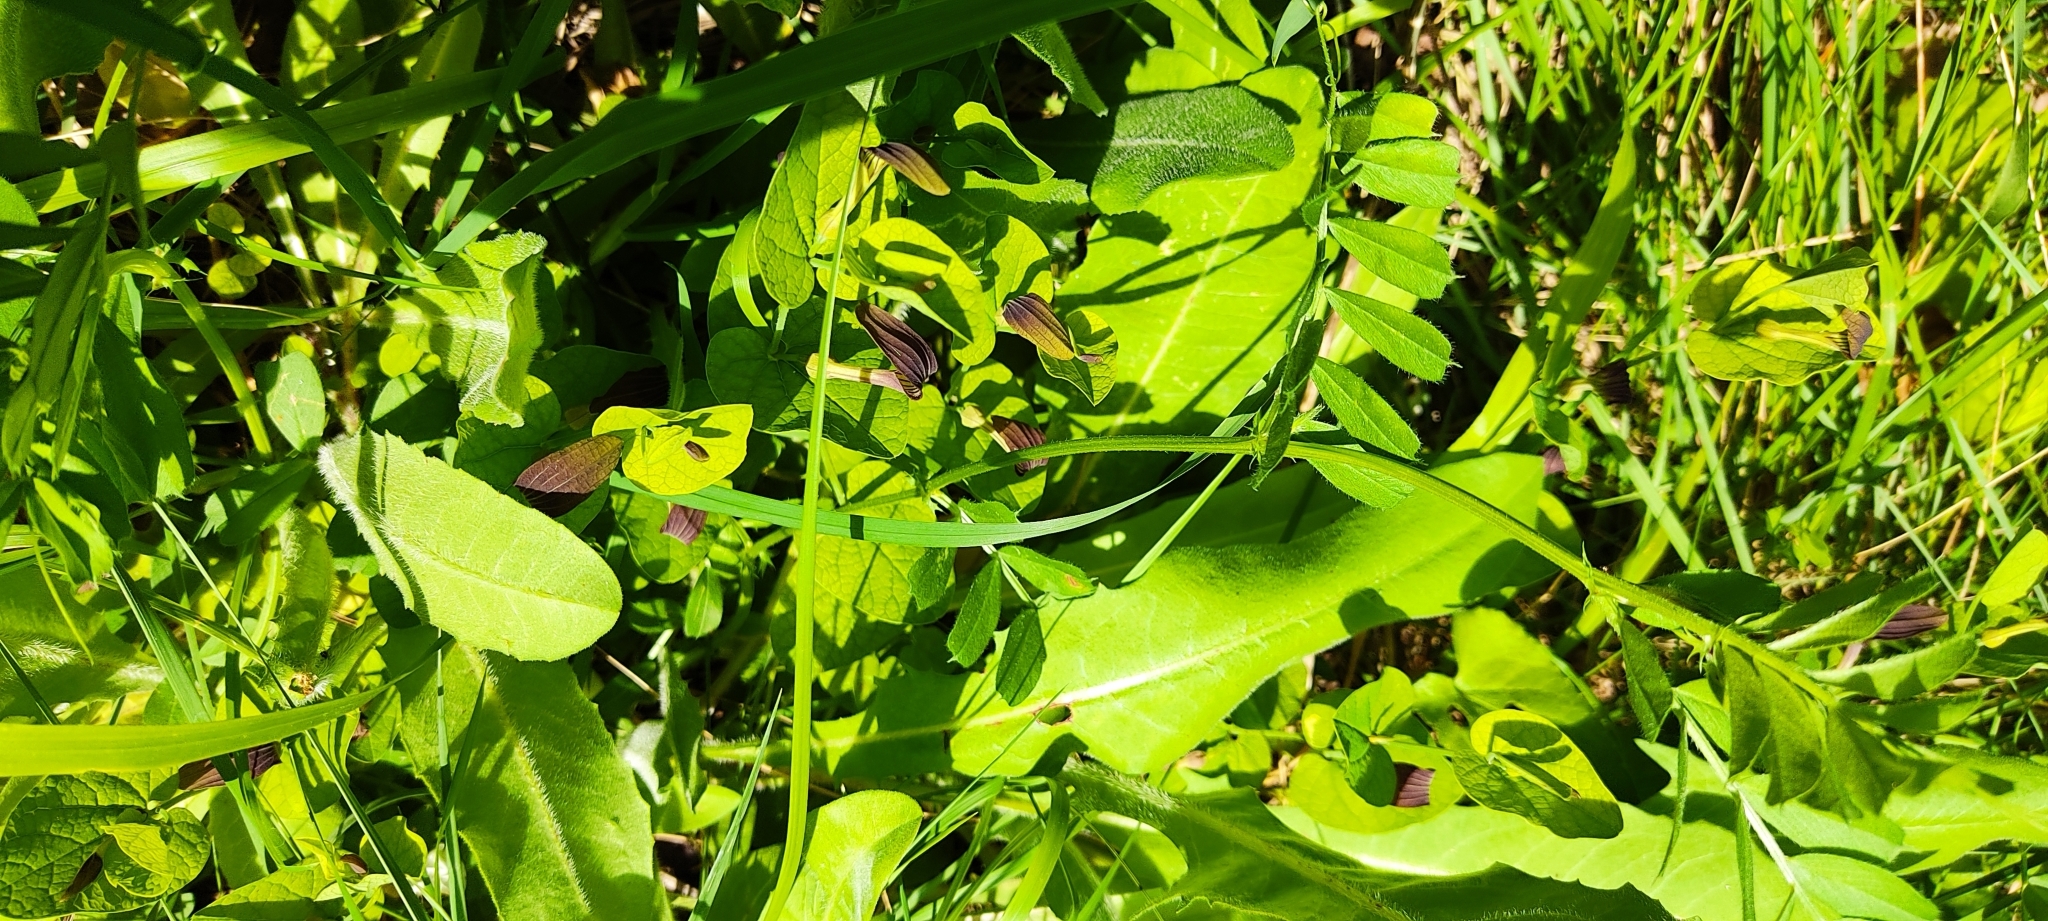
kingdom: Plantae
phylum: Tracheophyta
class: Magnoliopsida
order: Piperales
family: Aristolochiaceae
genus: Aristolochia
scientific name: Aristolochia rotunda
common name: Smearwort
